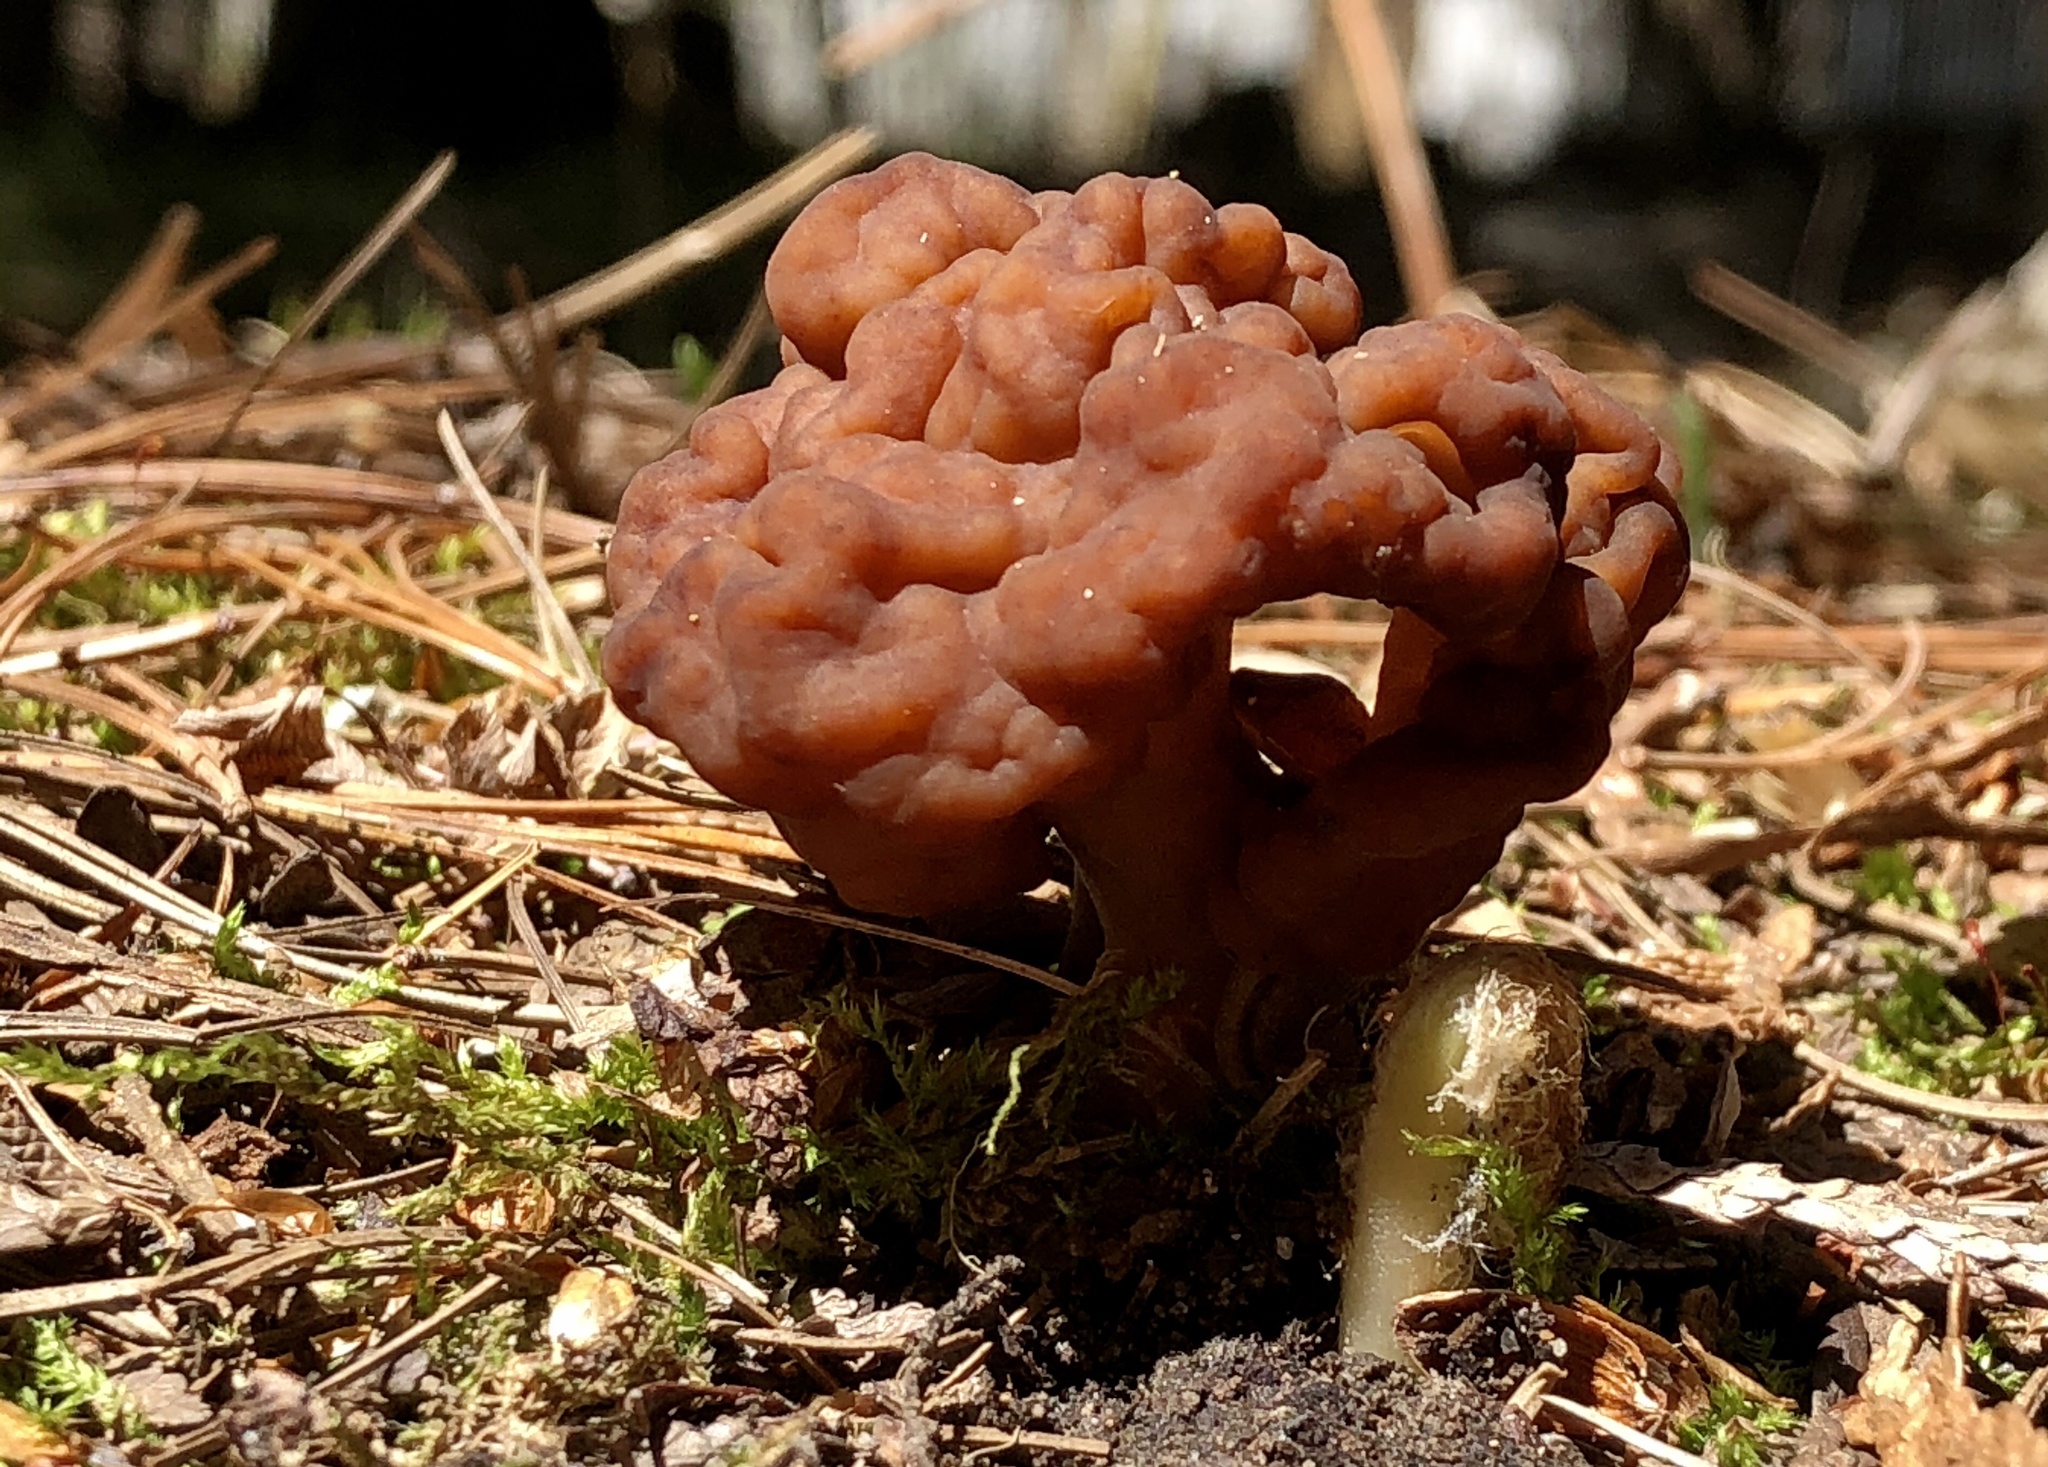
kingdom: Fungi
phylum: Ascomycota
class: Pezizomycetes
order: Pezizales
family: Discinaceae
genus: Gyromitra
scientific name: Gyromitra esculenta
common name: False morel
